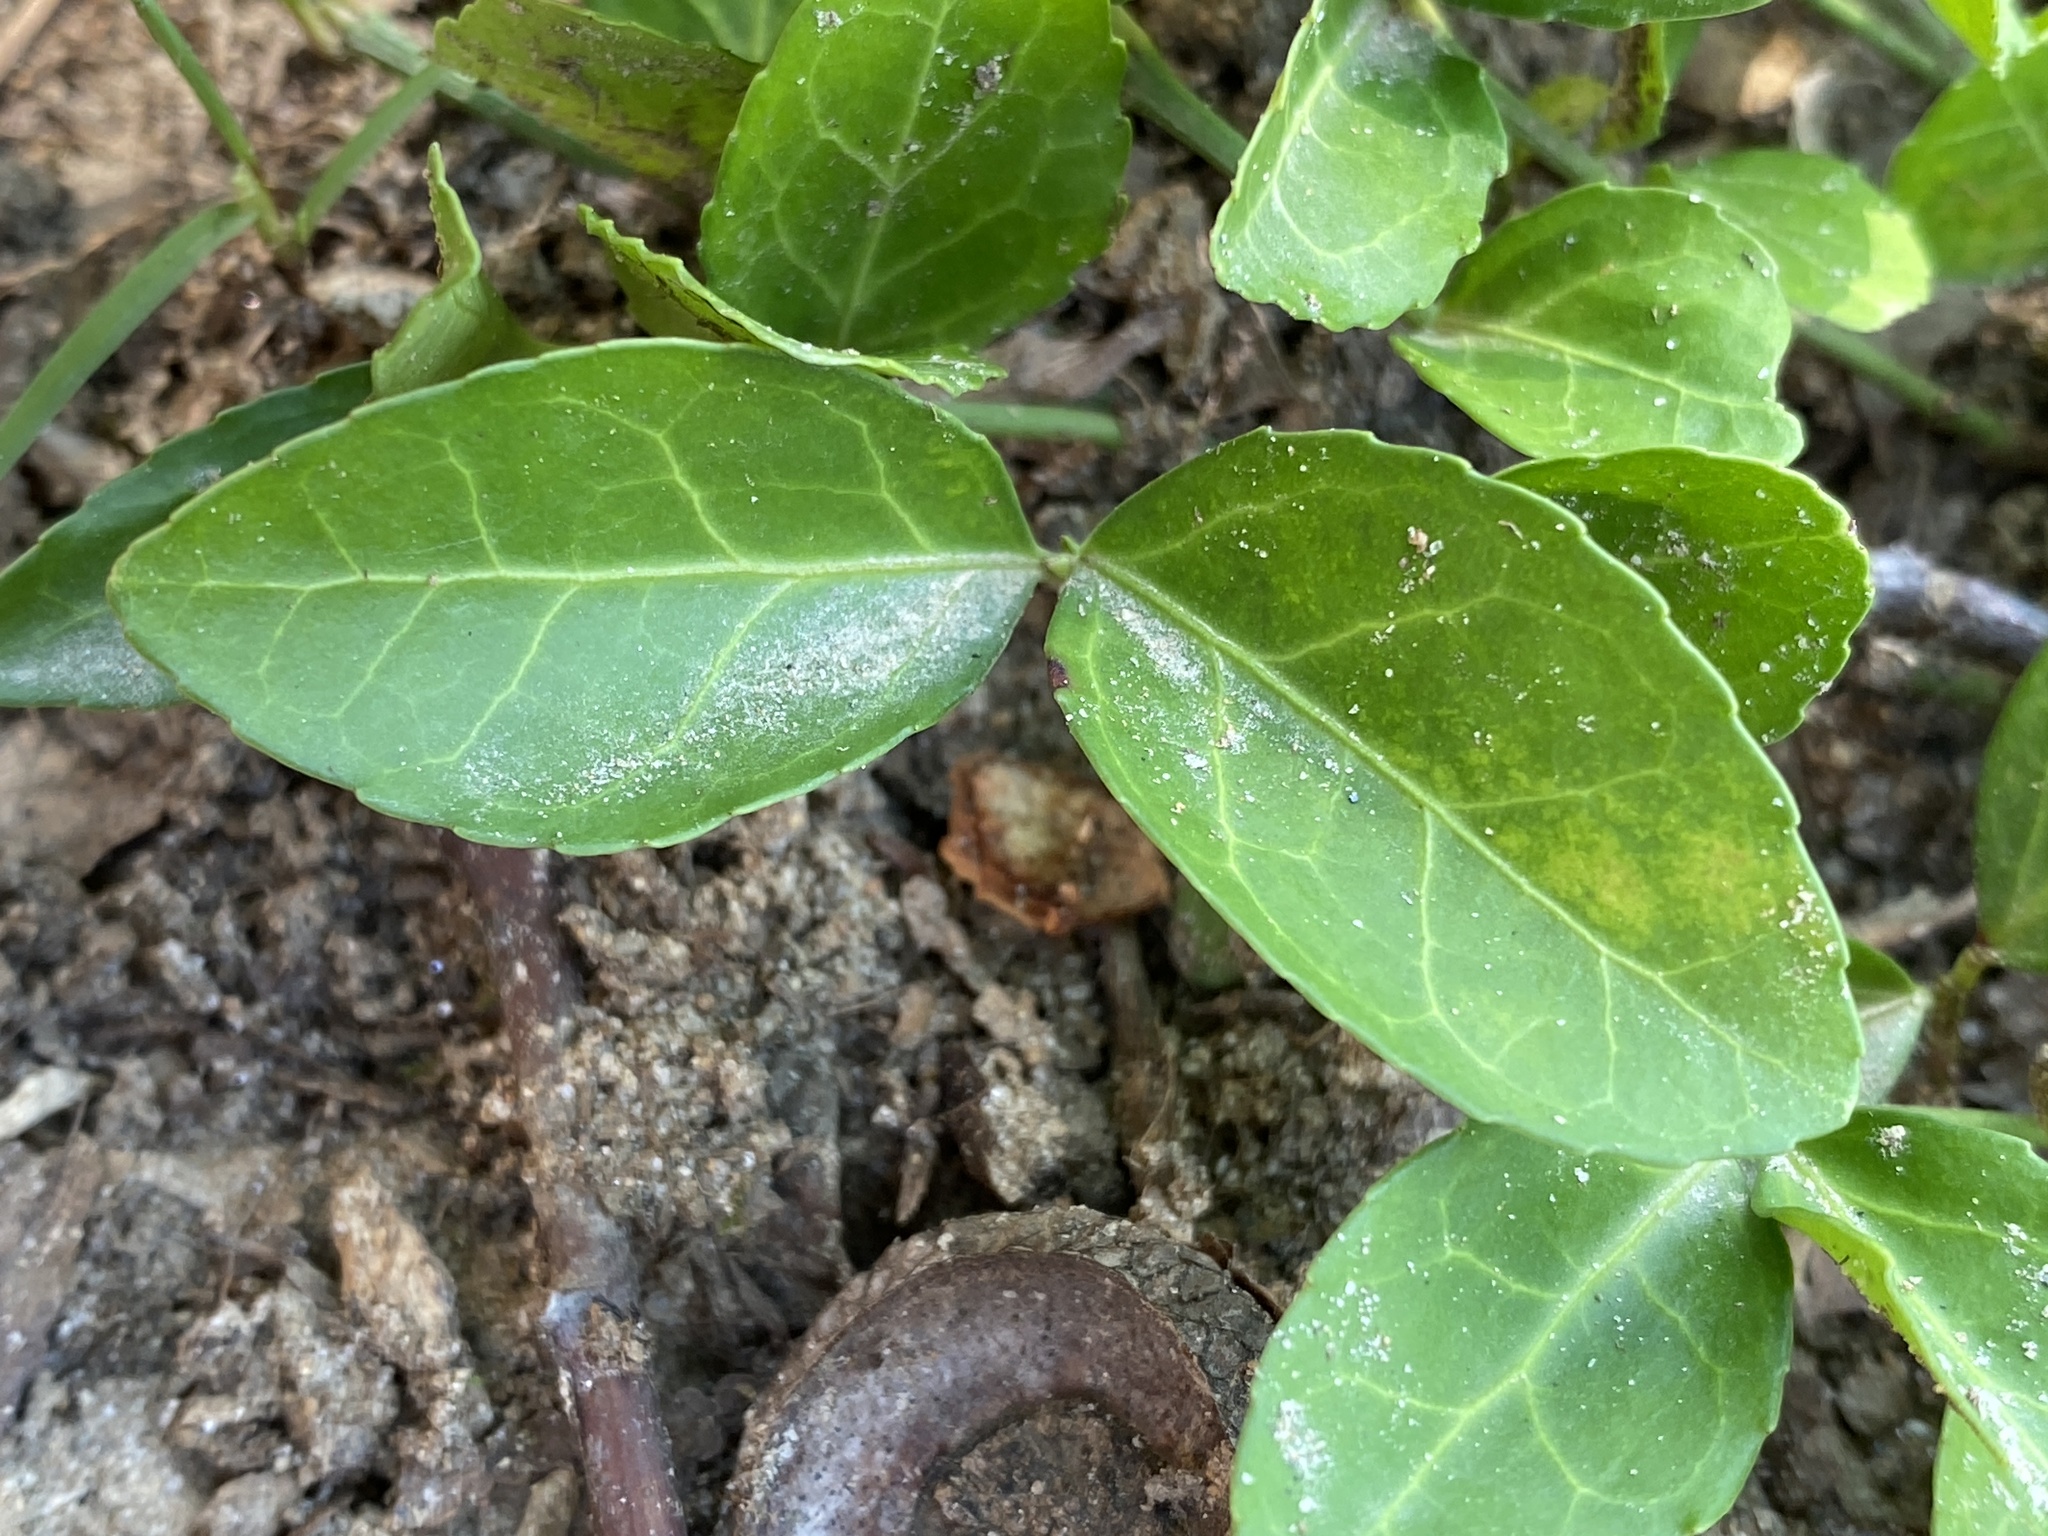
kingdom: Plantae
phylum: Tracheophyta
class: Magnoliopsida
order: Celastrales
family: Celastraceae
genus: Euonymus
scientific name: Euonymus fortunei
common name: Climbing euonymus
